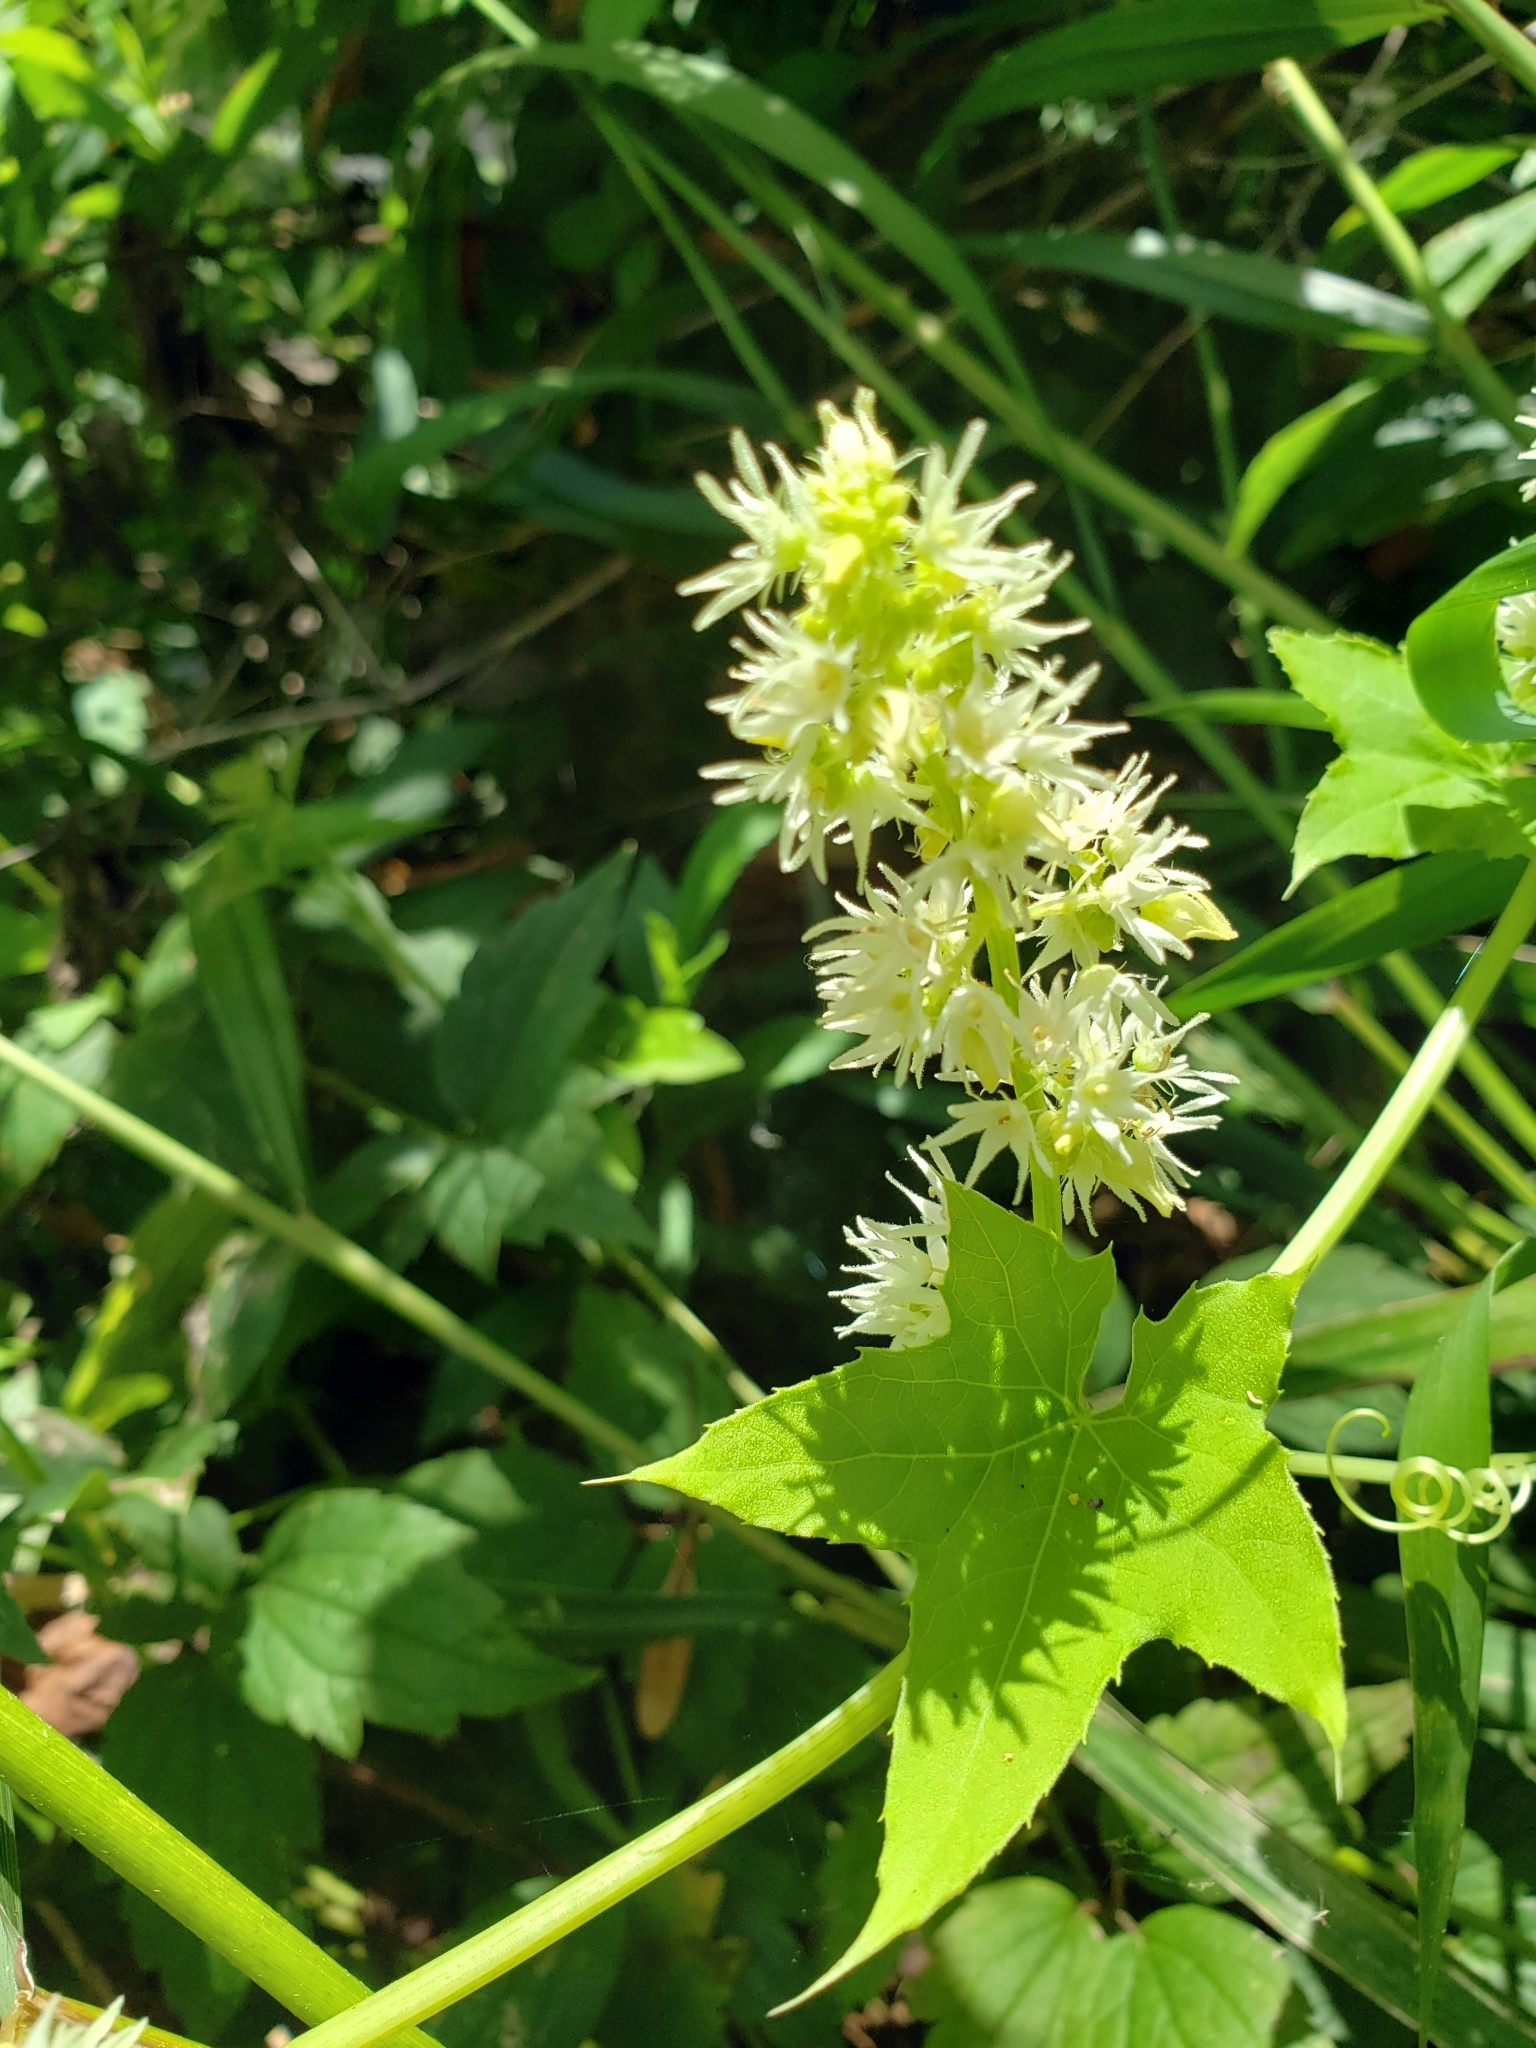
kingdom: Plantae
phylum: Tracheophyta
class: Magnoliopsida
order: Cucurbitales
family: Cucurbitaceae
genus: Echinocystis
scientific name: Echinocystis lobata
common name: Wild cucumber
